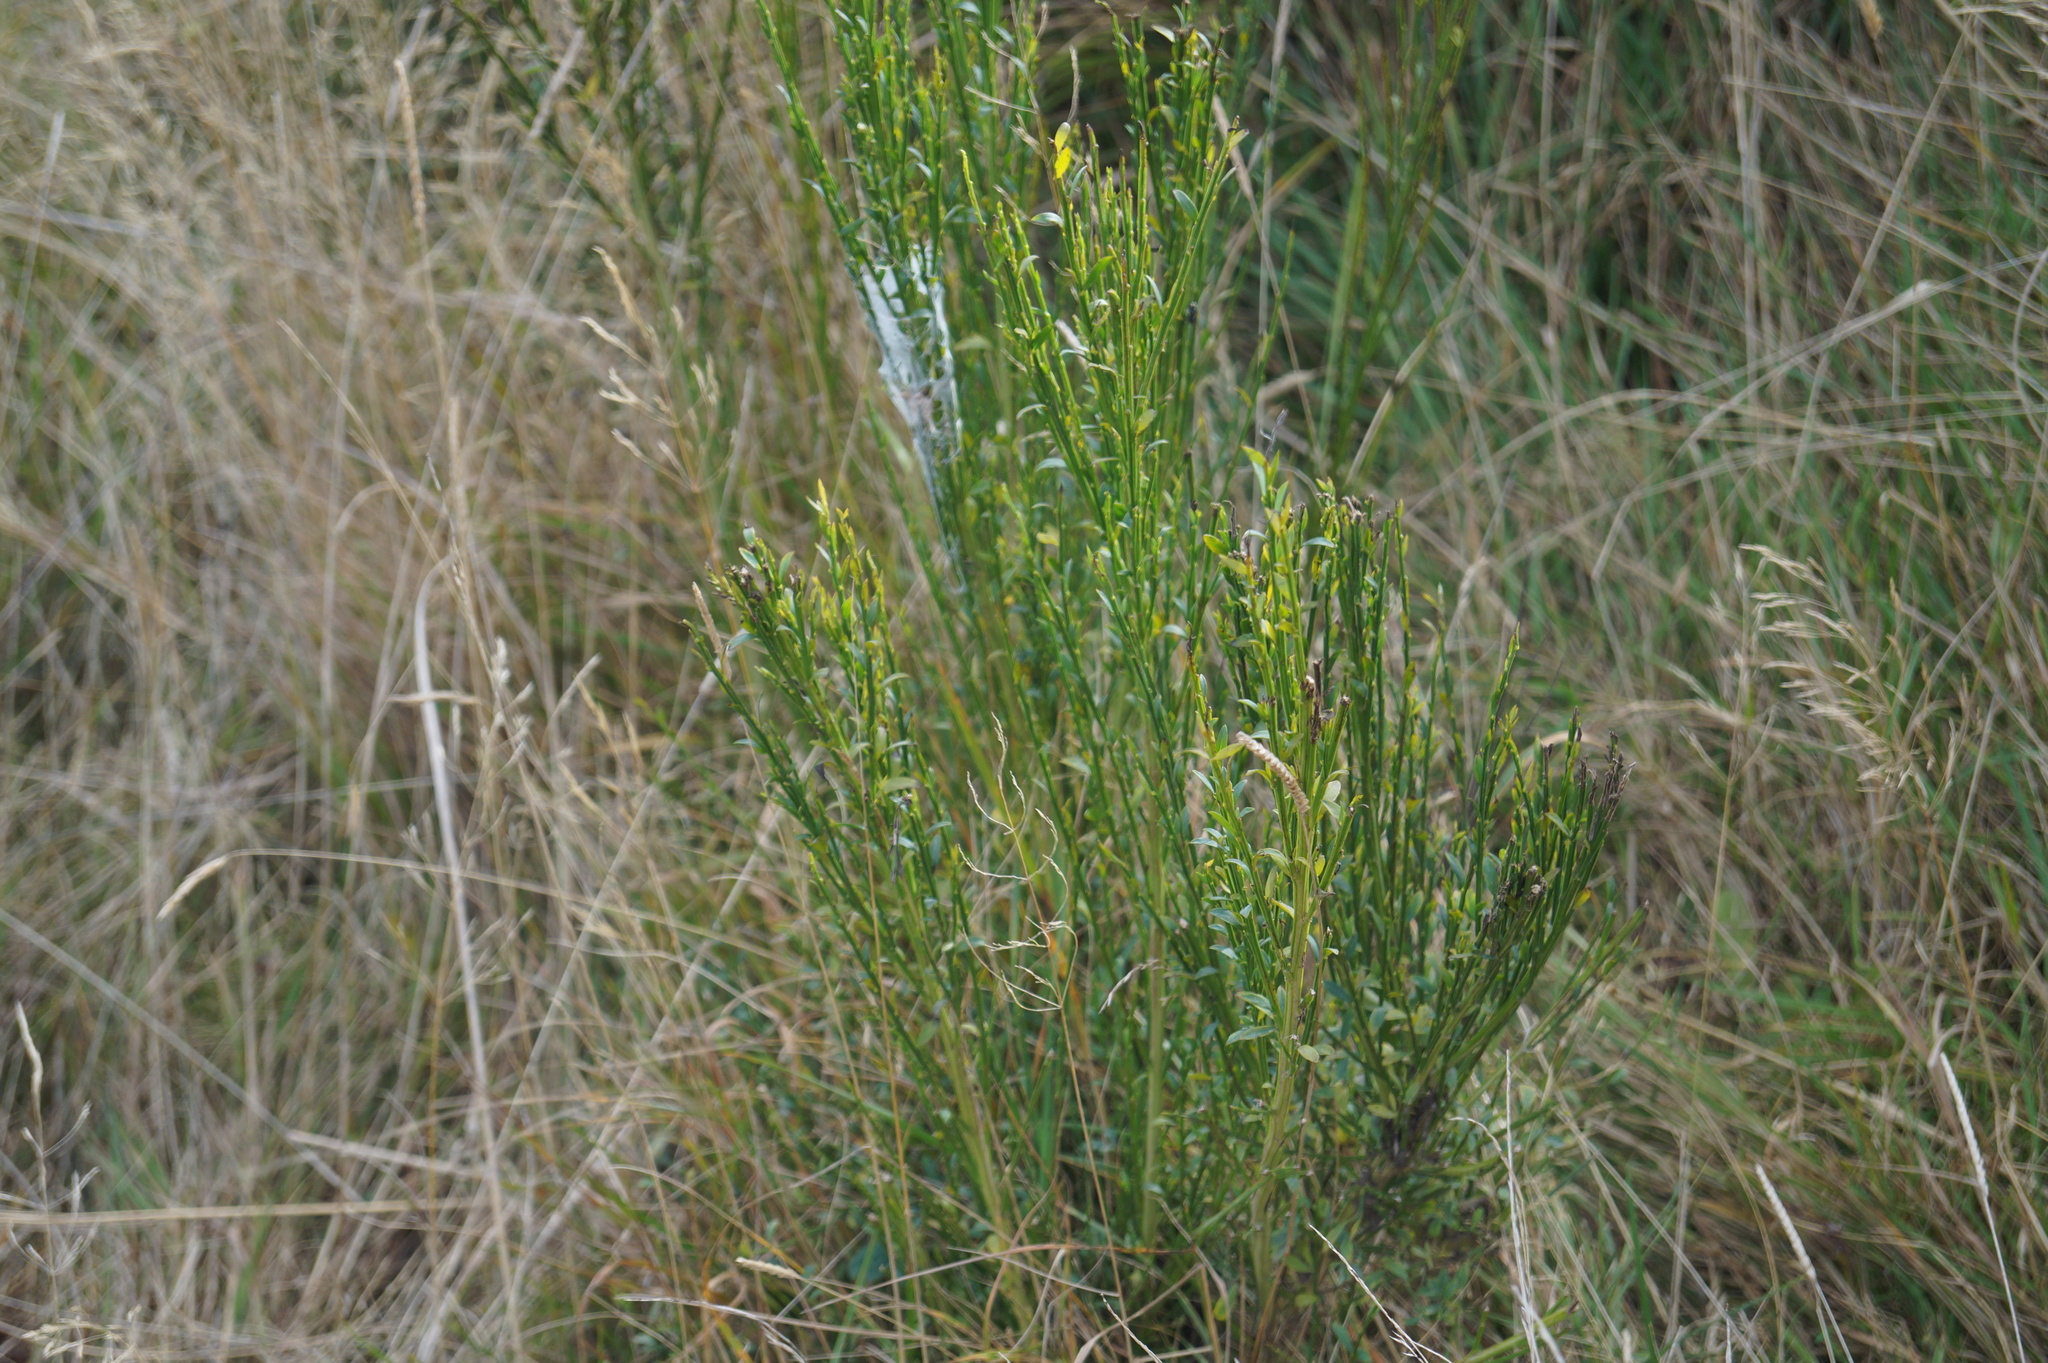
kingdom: Plantae
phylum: Tracheophyta
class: Magnoliopsida
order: Fabales
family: Fabaceae
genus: Cytisus
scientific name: Cytisus scoparius
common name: Scotch broom
